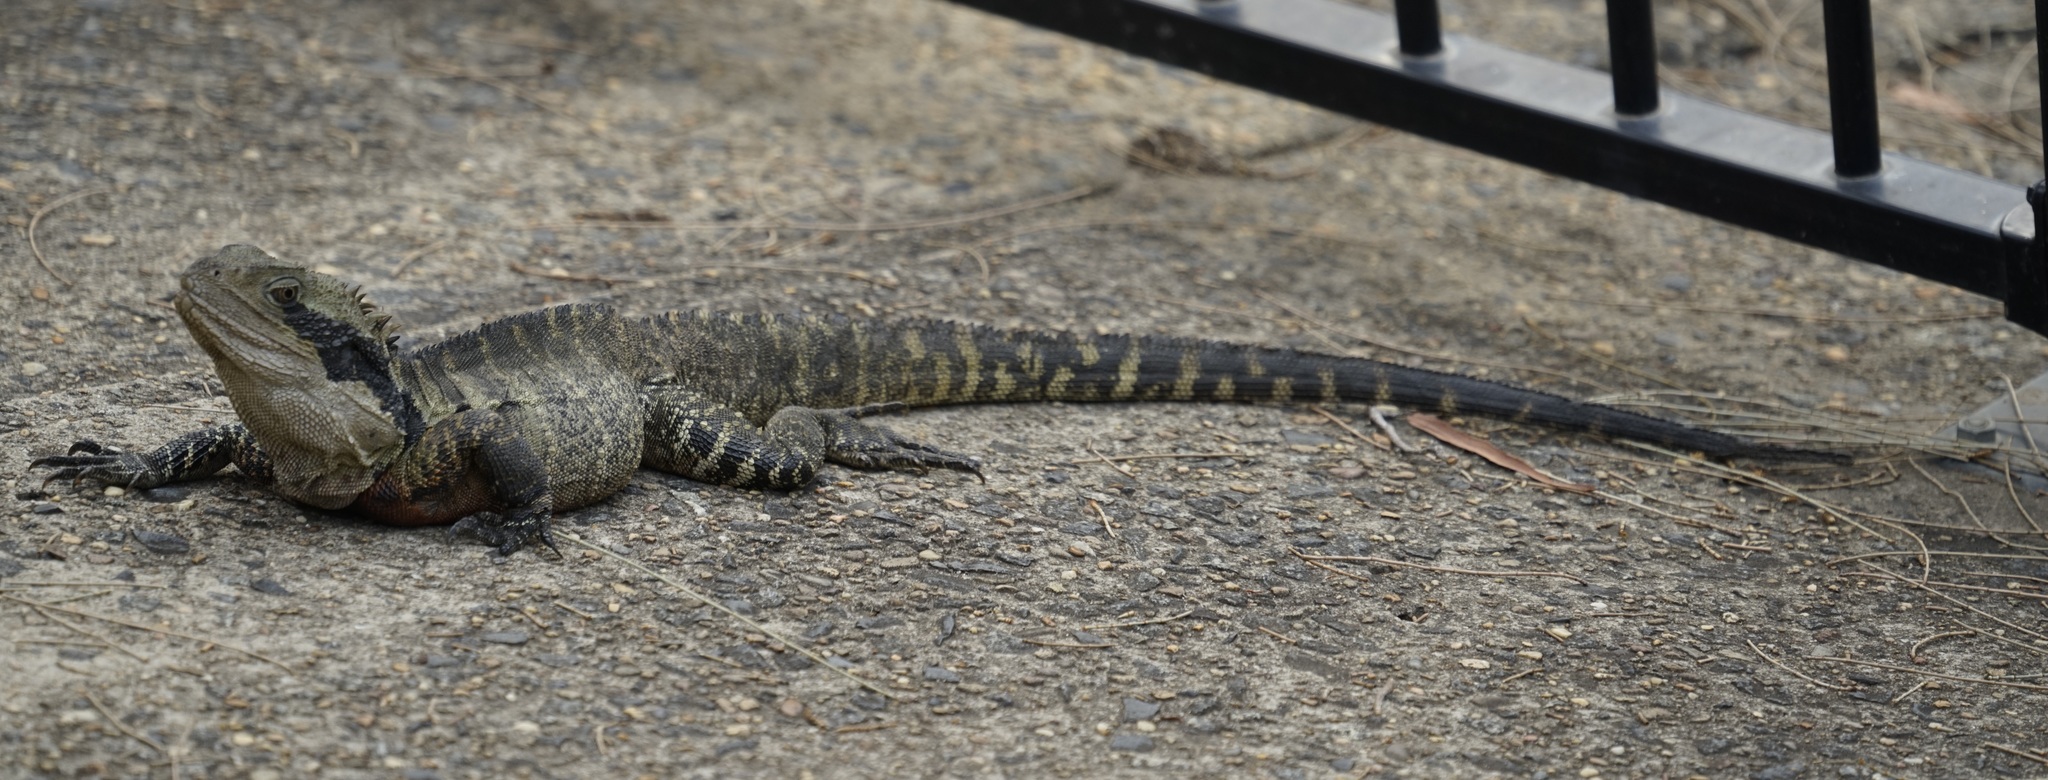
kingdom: Animalia
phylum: Chordata
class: Squamata
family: Agamidae
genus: Intellagama
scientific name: Intellagama lesueurii
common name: Eastern water dragon
